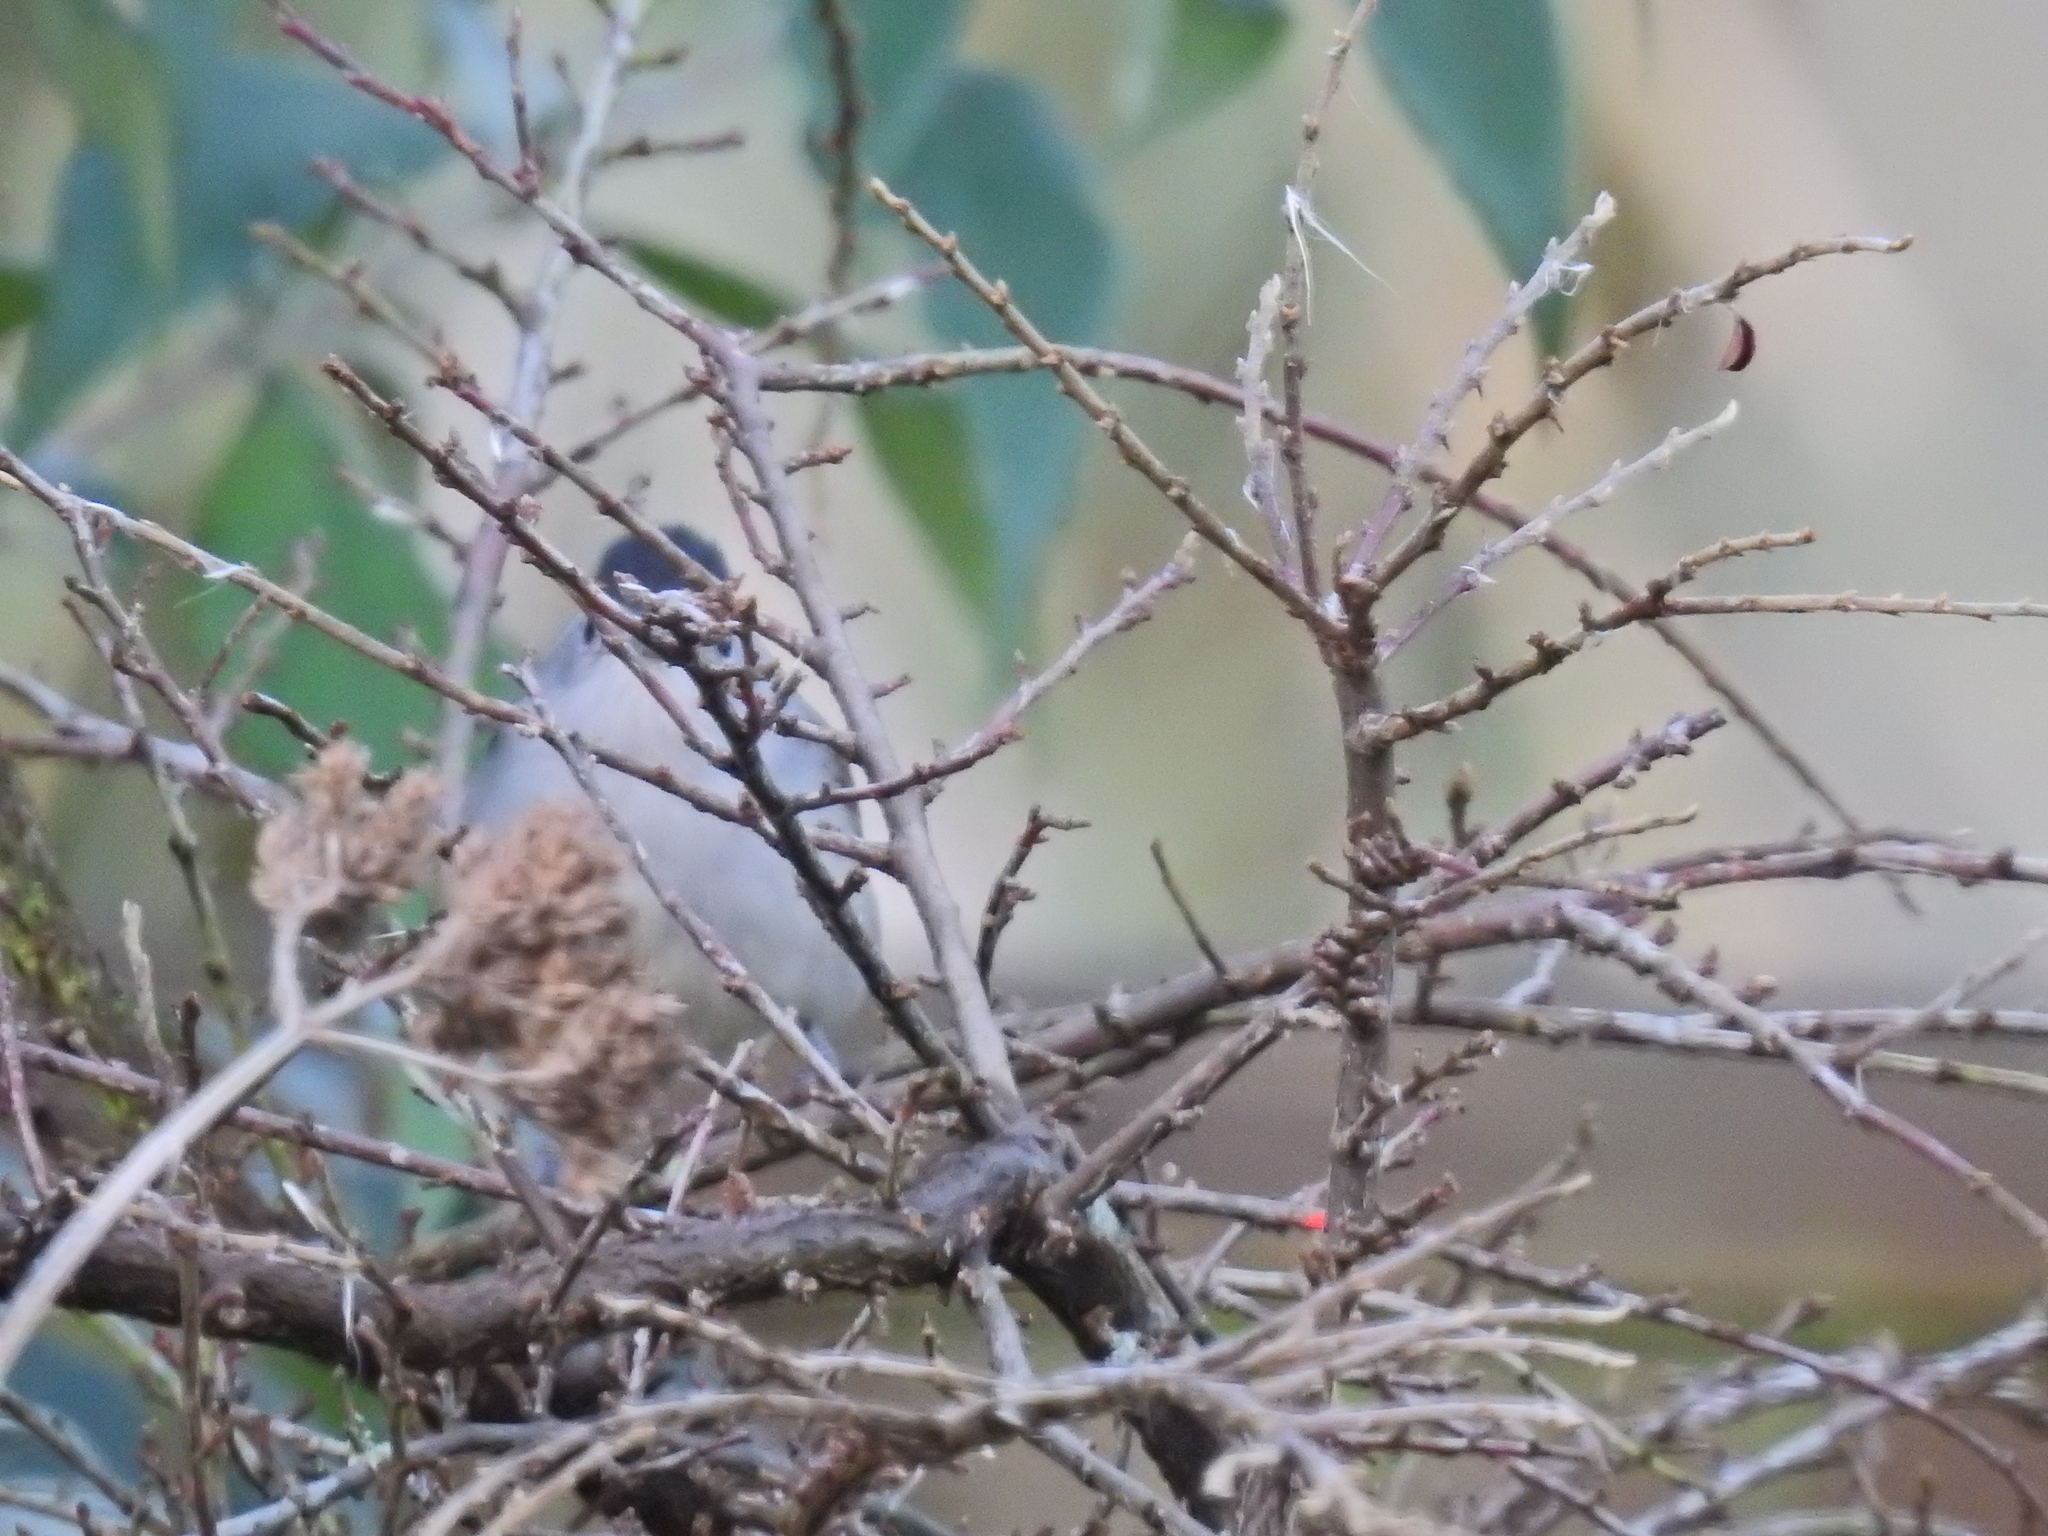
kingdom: Animalia
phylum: Chordata
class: Aves
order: Passeriformes
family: Sylviidae
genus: Sylvia
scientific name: Sylvia atricapilla
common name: Eurasian blackcap
